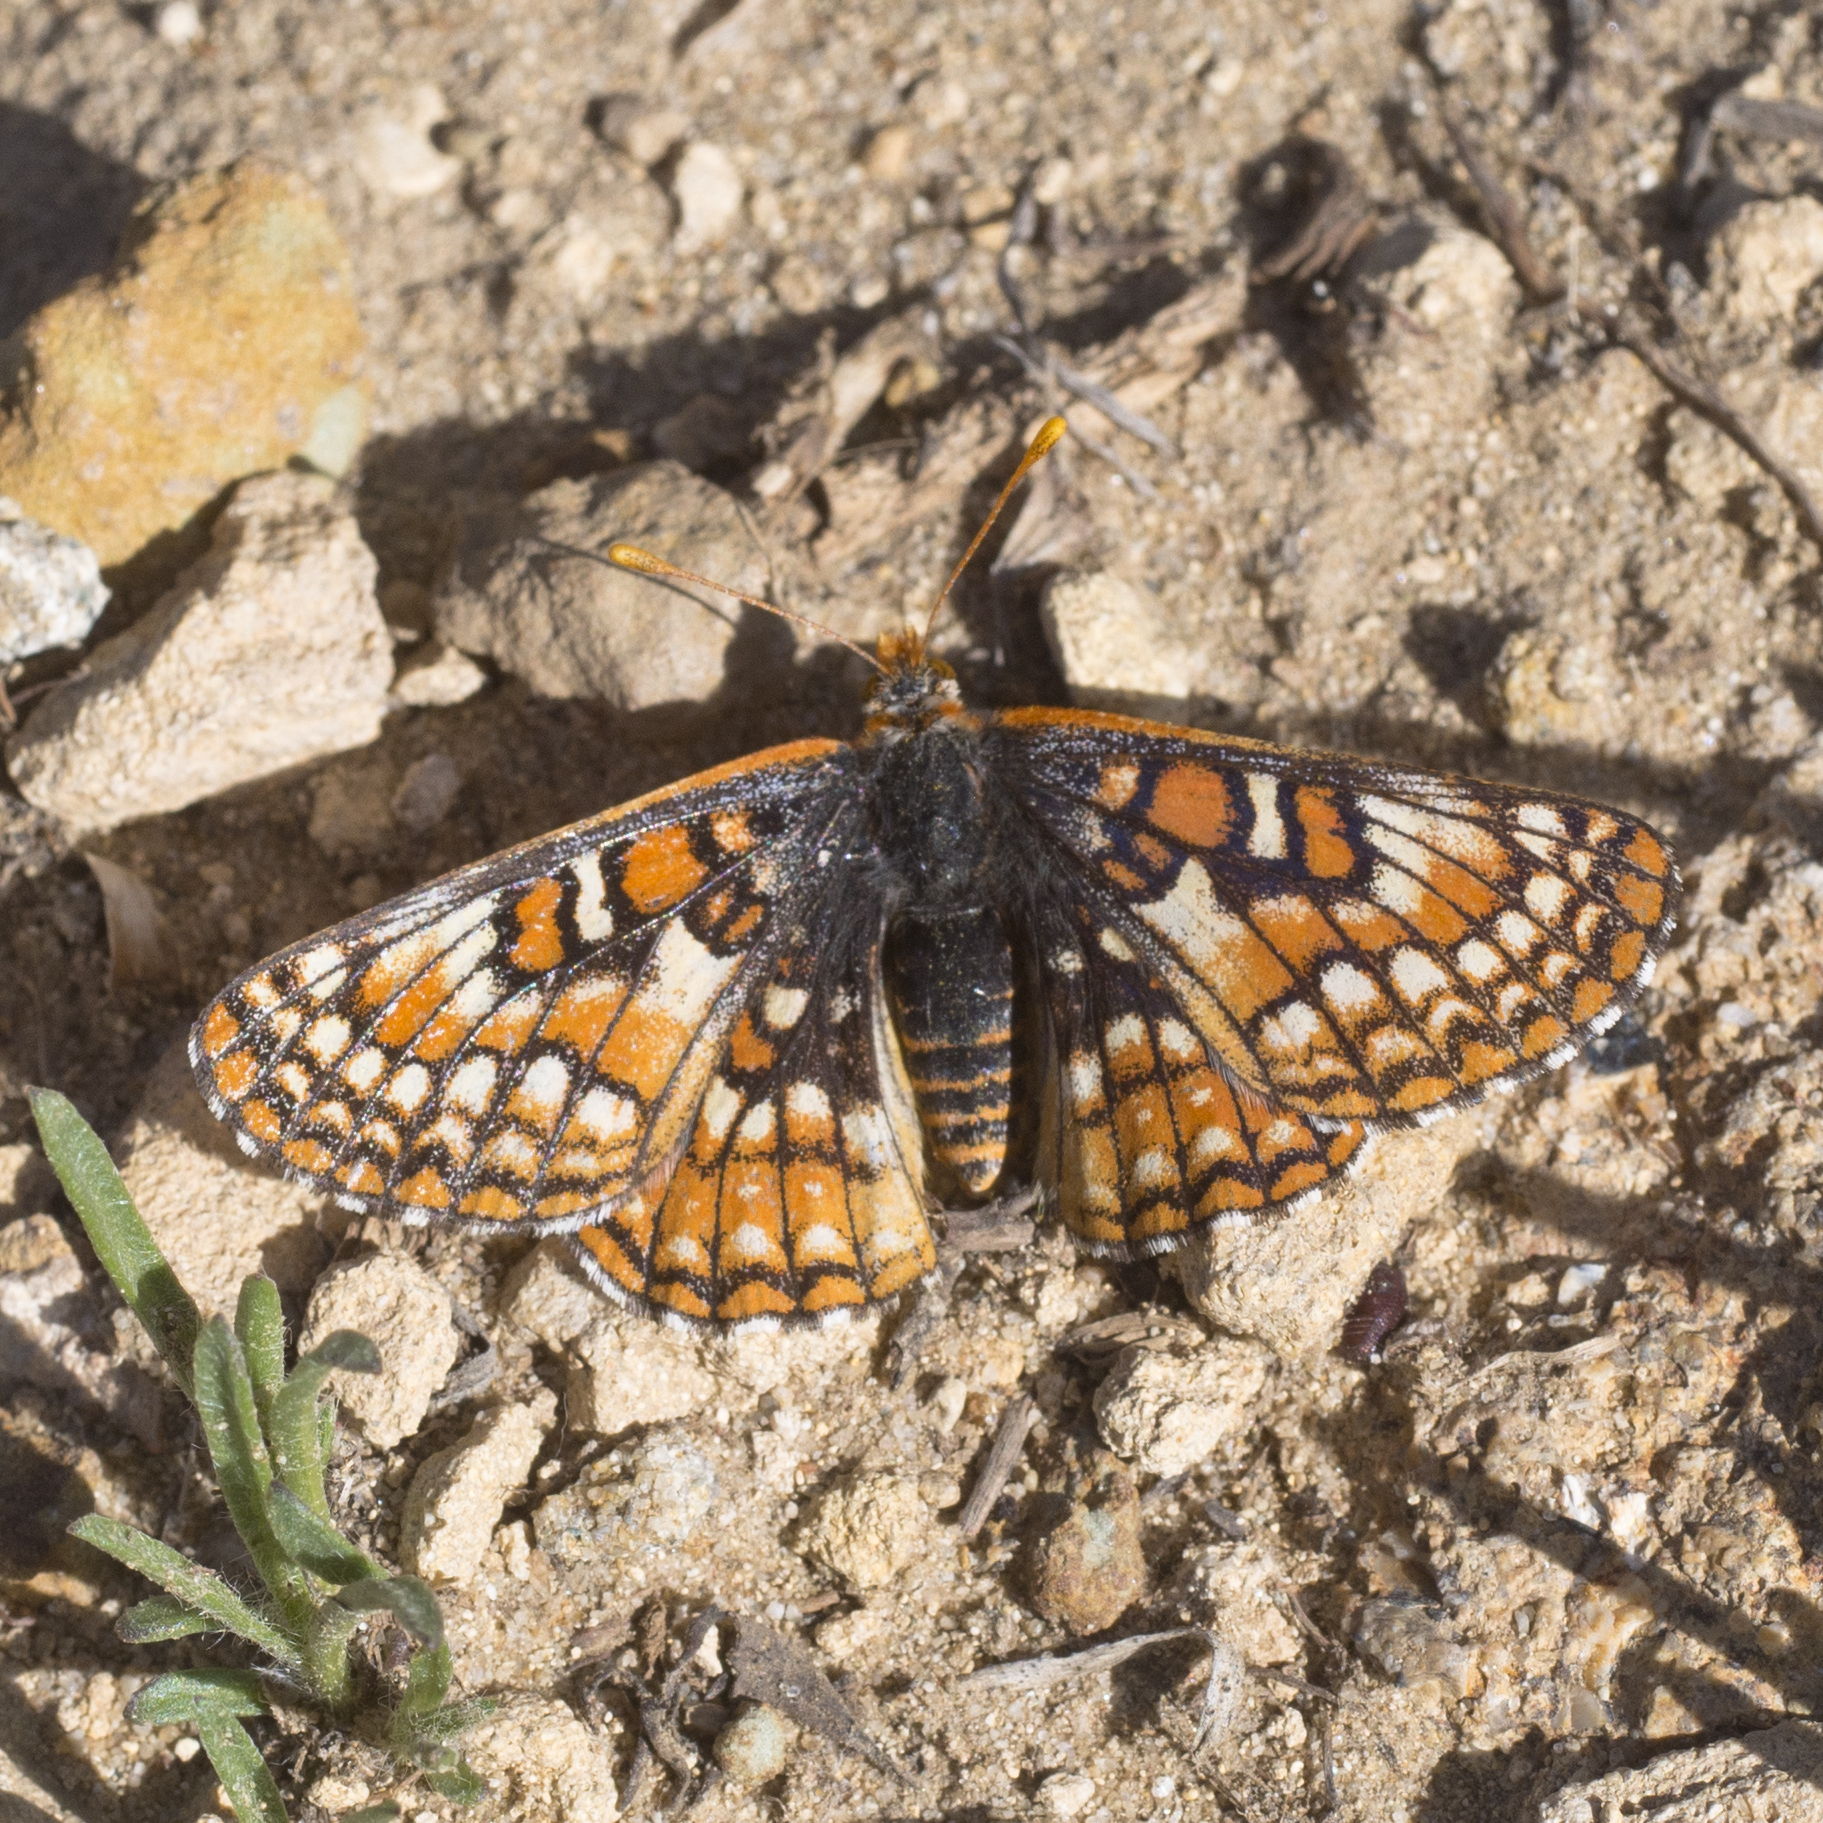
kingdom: Animalia
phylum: Arthropoda
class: Insecta
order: Lepidoptera
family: Nymphalidae
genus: Occidryas
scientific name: Occidryas editha
